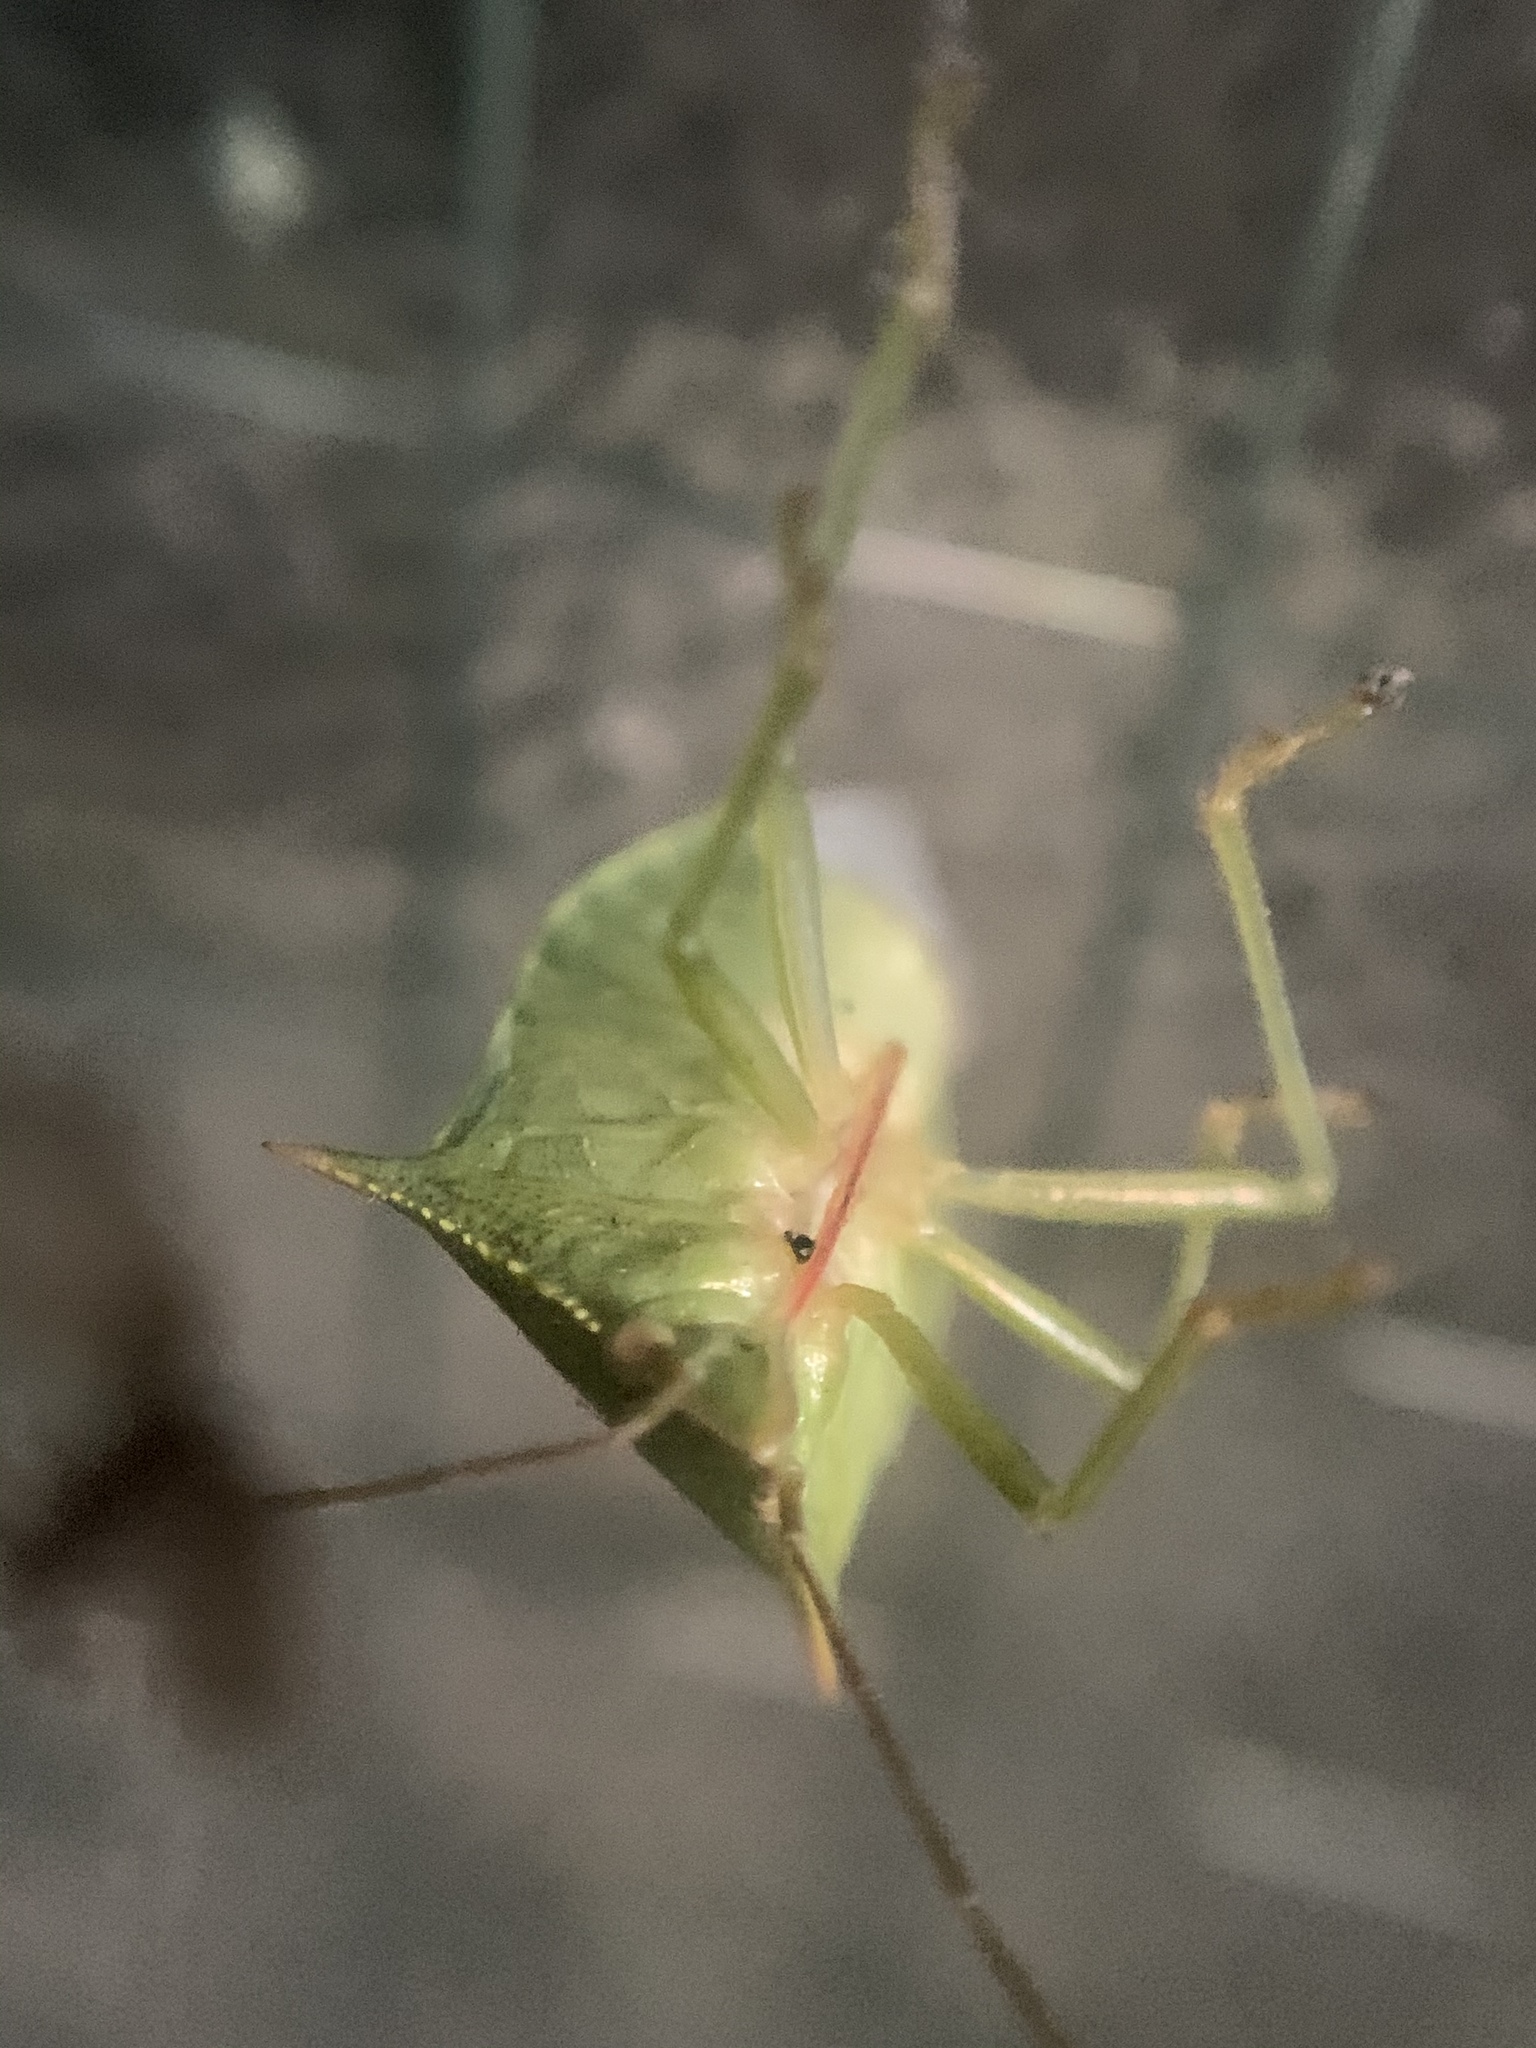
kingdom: Animalia
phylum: Arthropoda
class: Insecta
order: Hemiptera
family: Pentatomidae
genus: Loxa
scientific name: Loxa deducta
